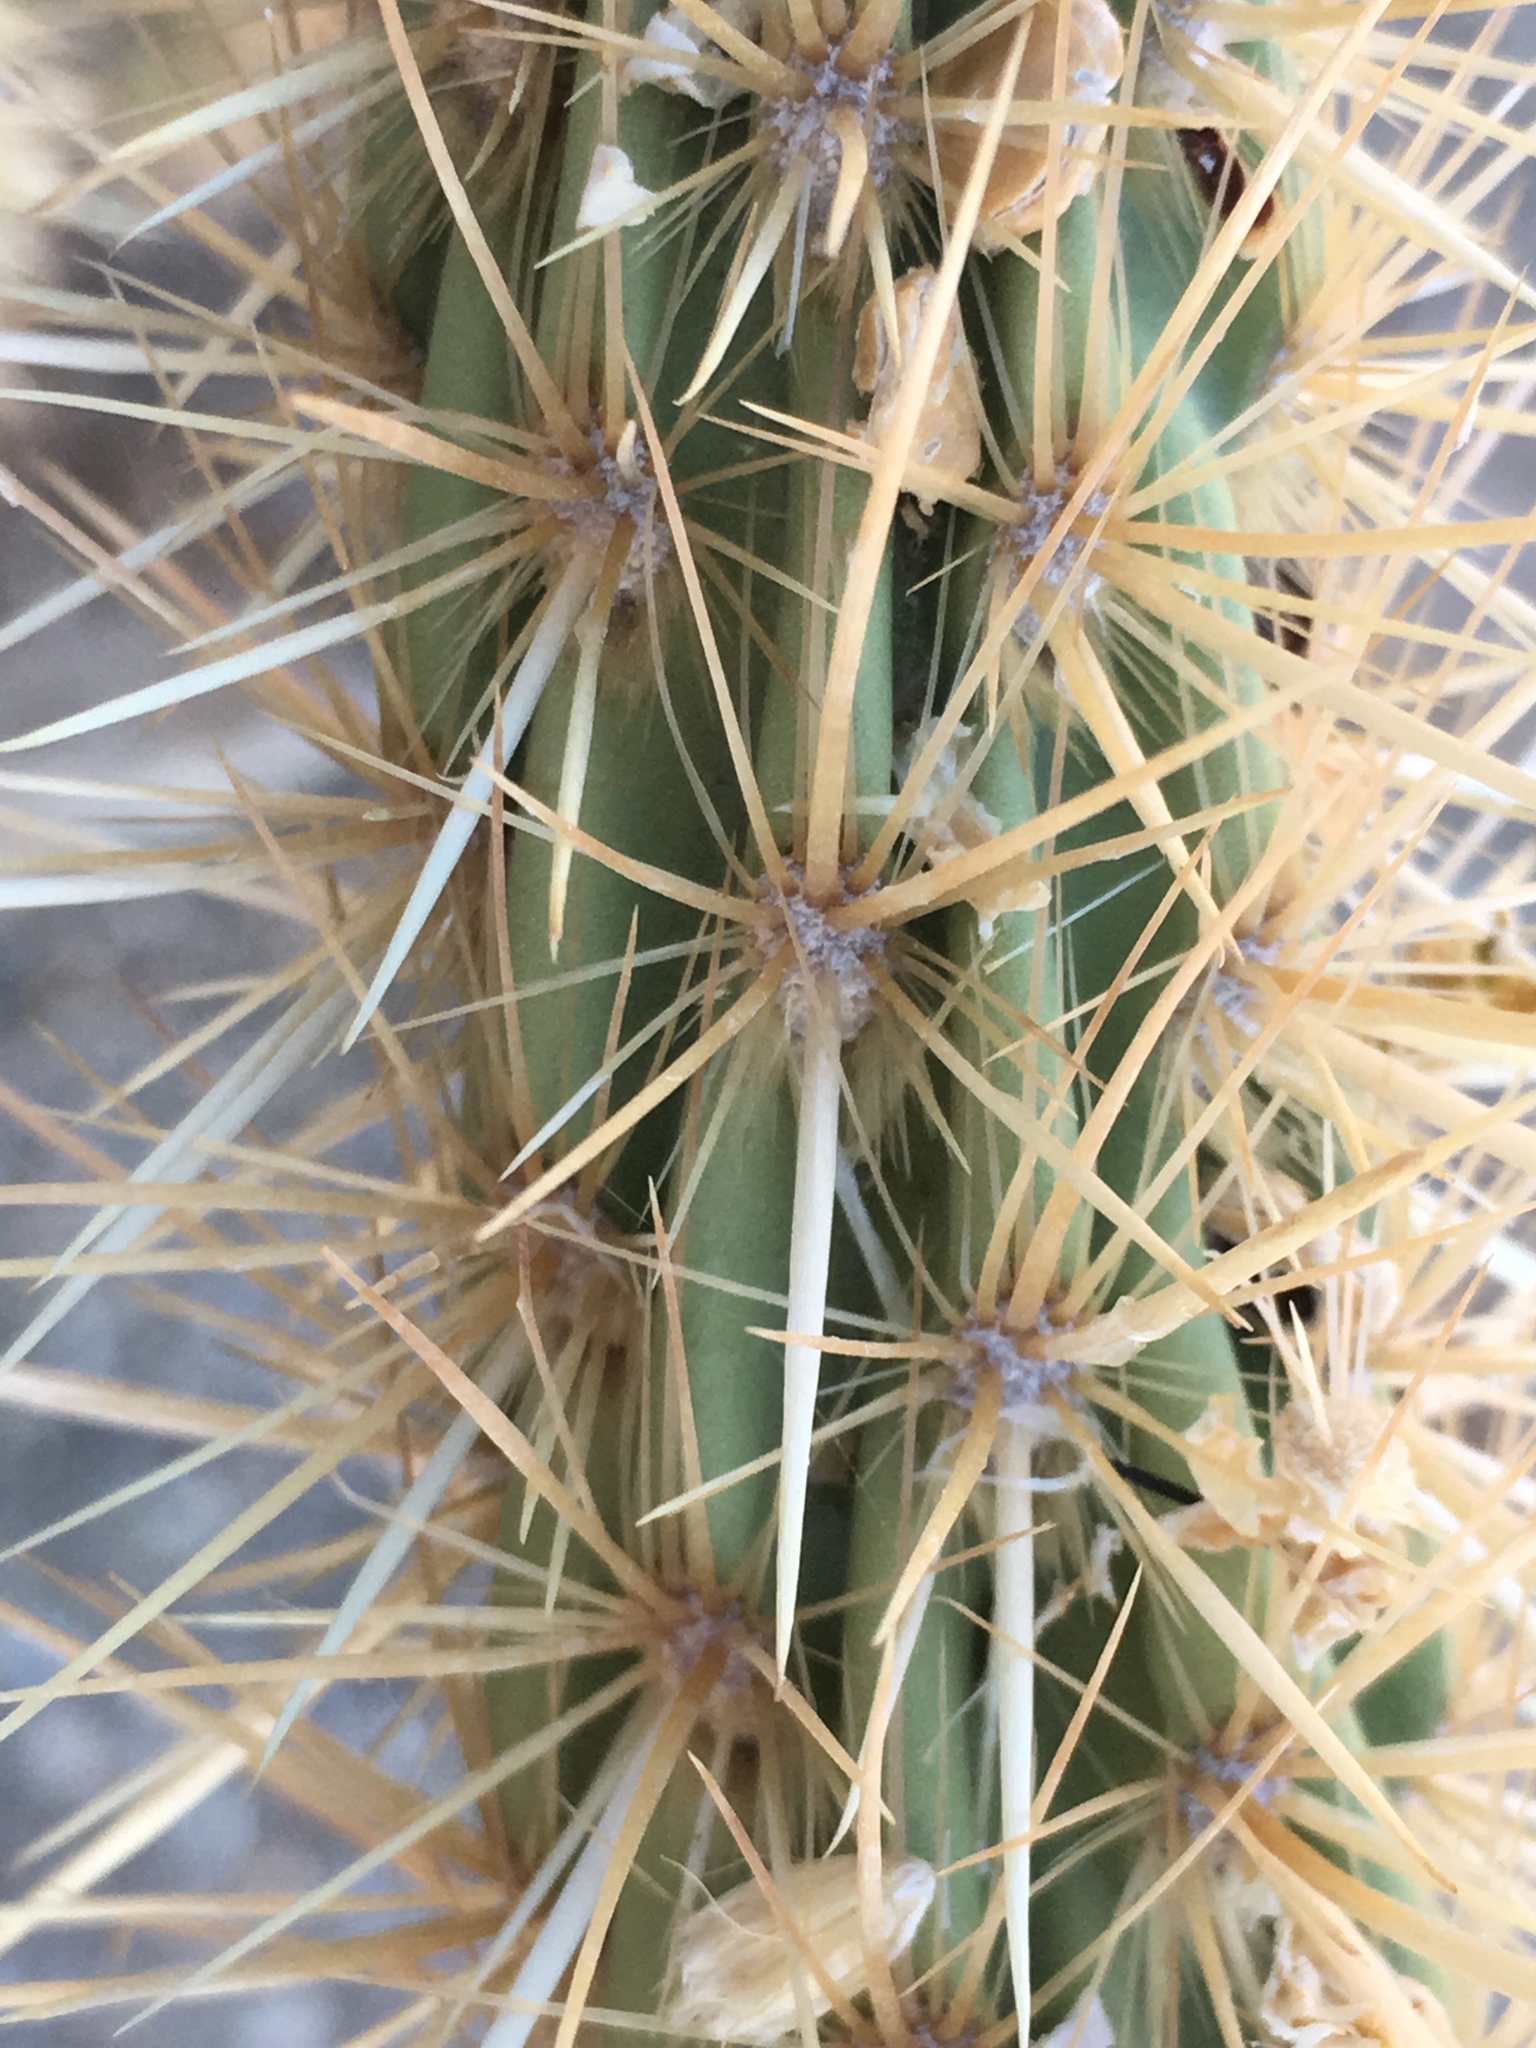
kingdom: Plantae
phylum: Tracheophyta
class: Magnoliopsida
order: Caryophyllales
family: Cactaceae
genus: Cylindropuntia
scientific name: Cylindropuntia ganderi
